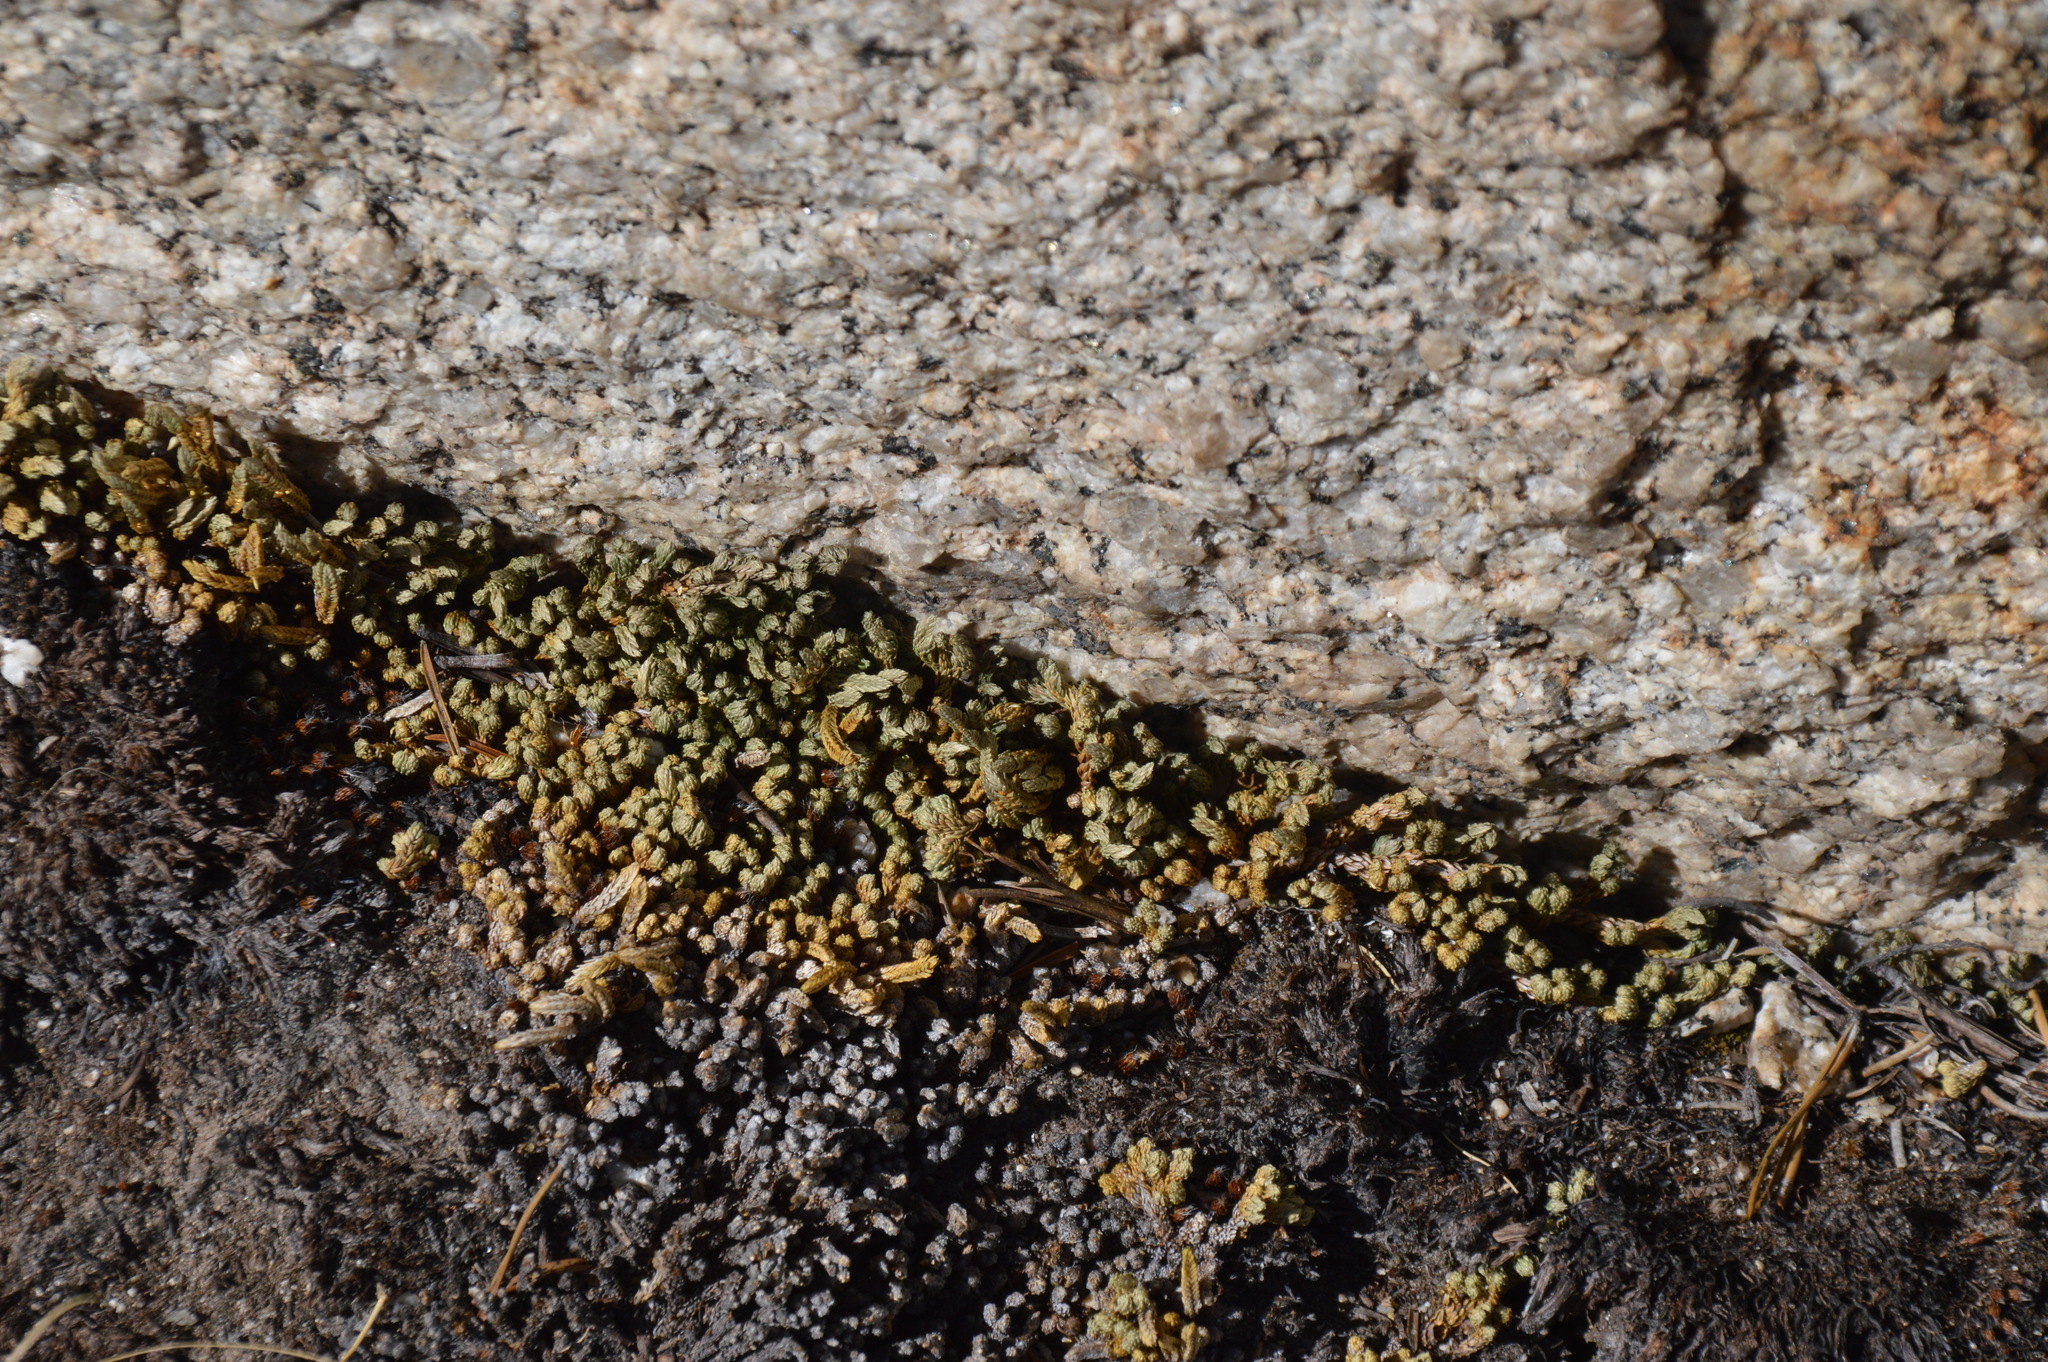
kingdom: Plantae
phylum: Tracheophyta
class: Lycopodiopsida
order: Selaginellales
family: Selaginellaceae
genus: Selaginella
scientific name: Selaginella watsonii
